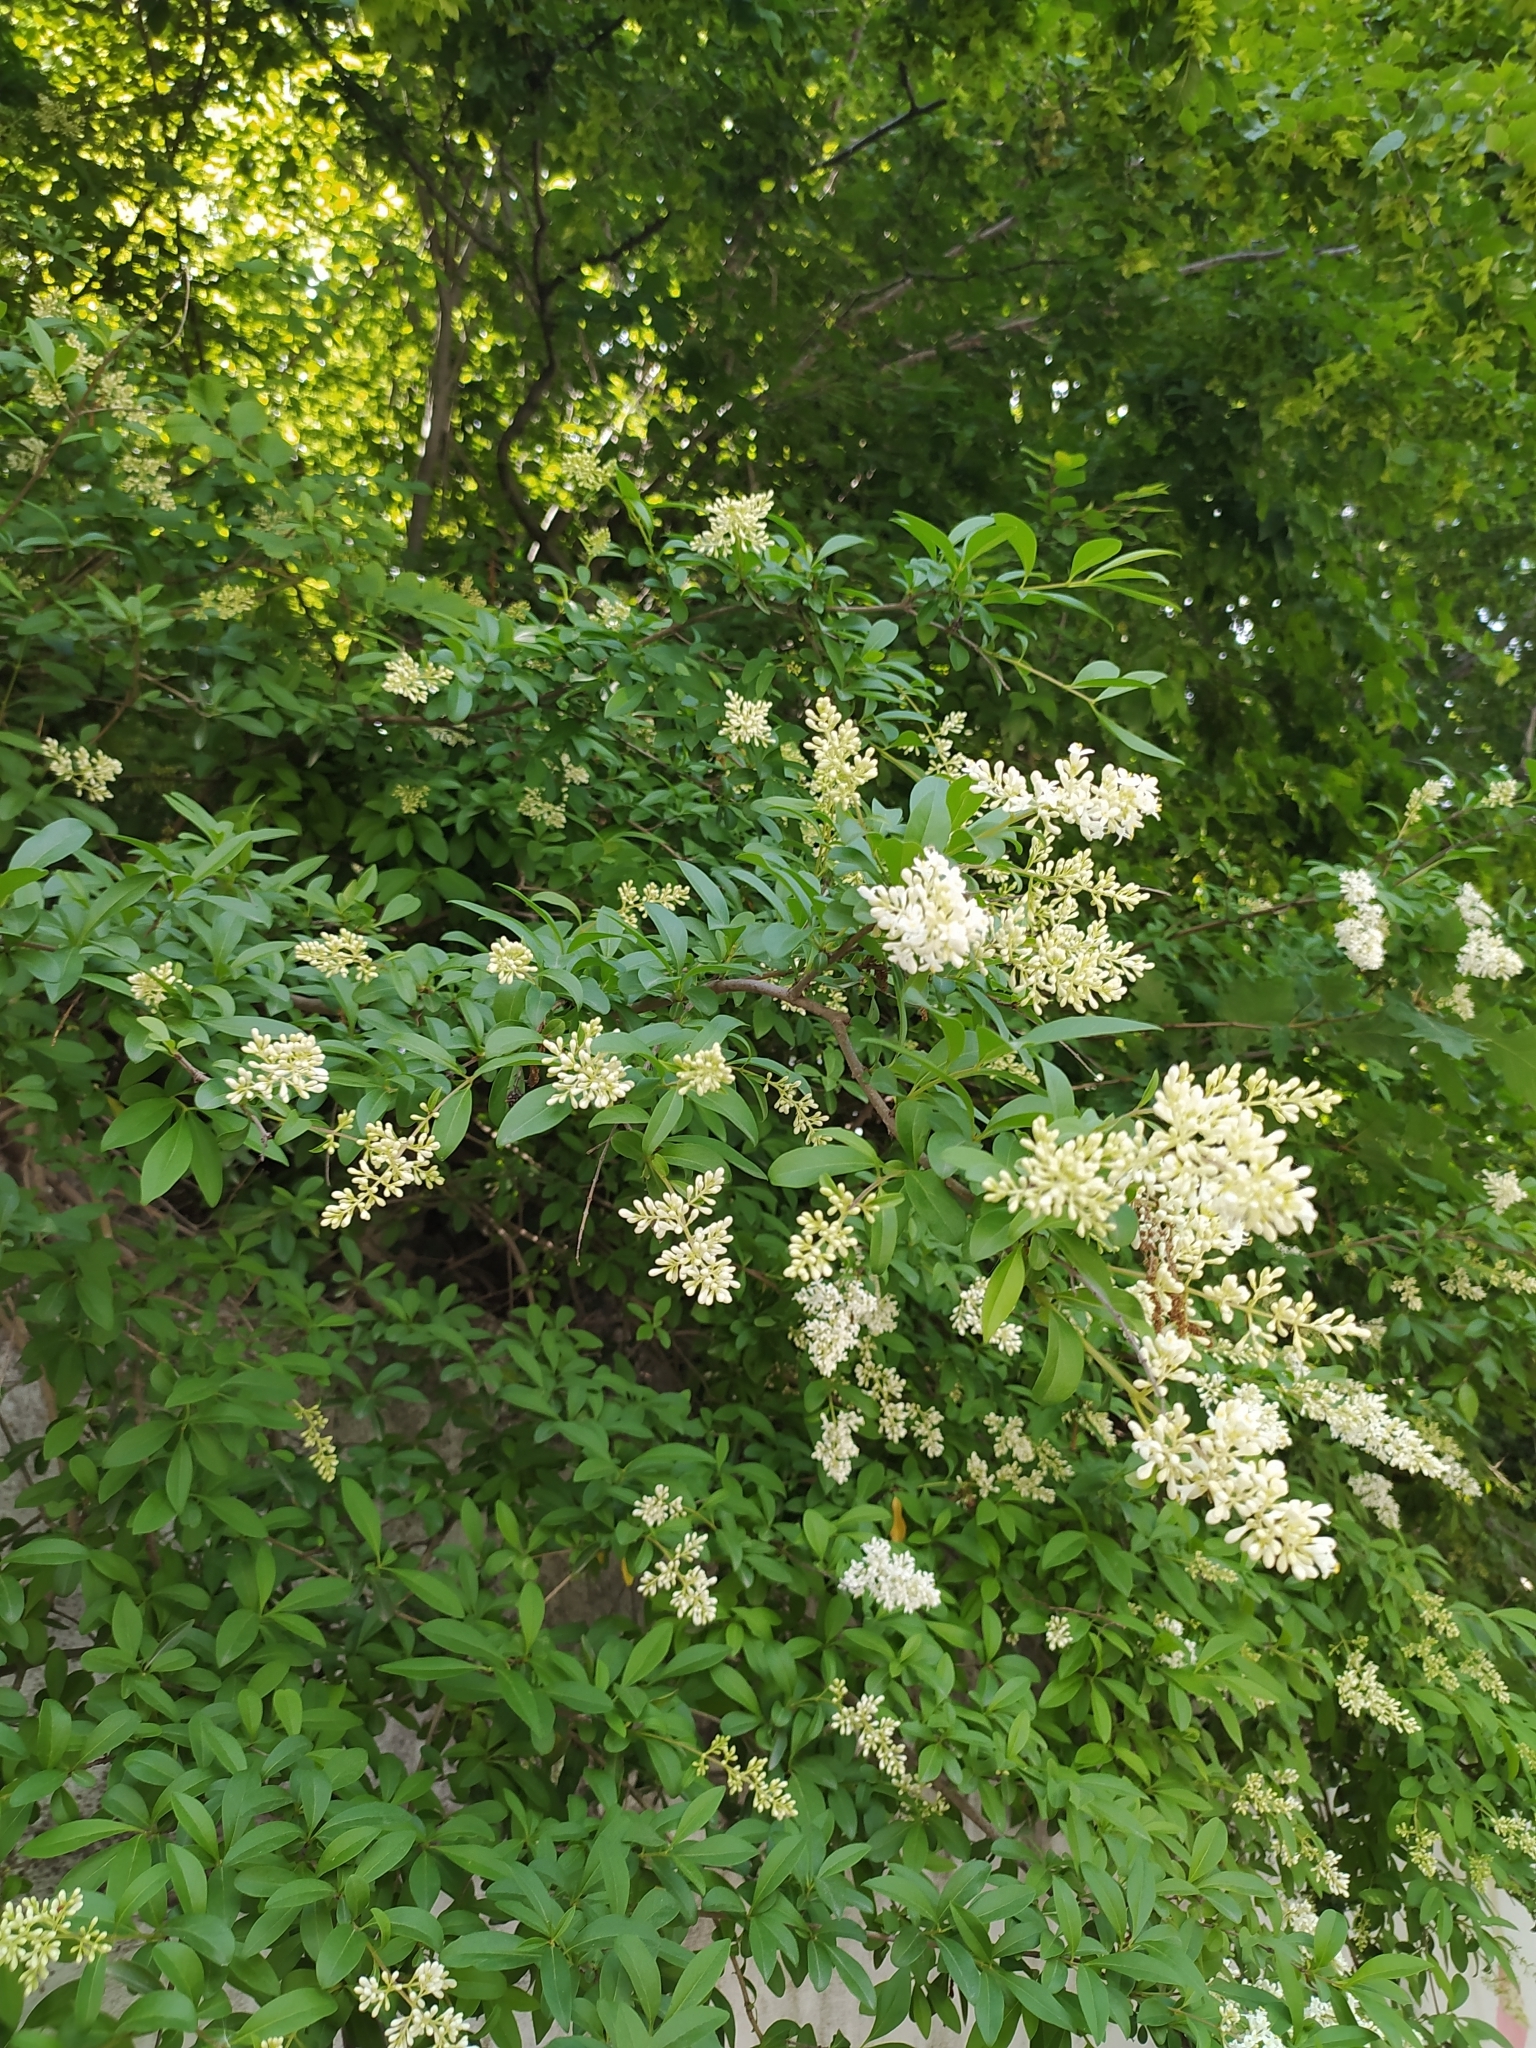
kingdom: Plantae
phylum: Tracheophyta
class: Magnoliopsida
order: Lamiales
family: Oleaceae
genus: Ligustrum
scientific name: Ligustrum vulgare
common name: Wild privet
